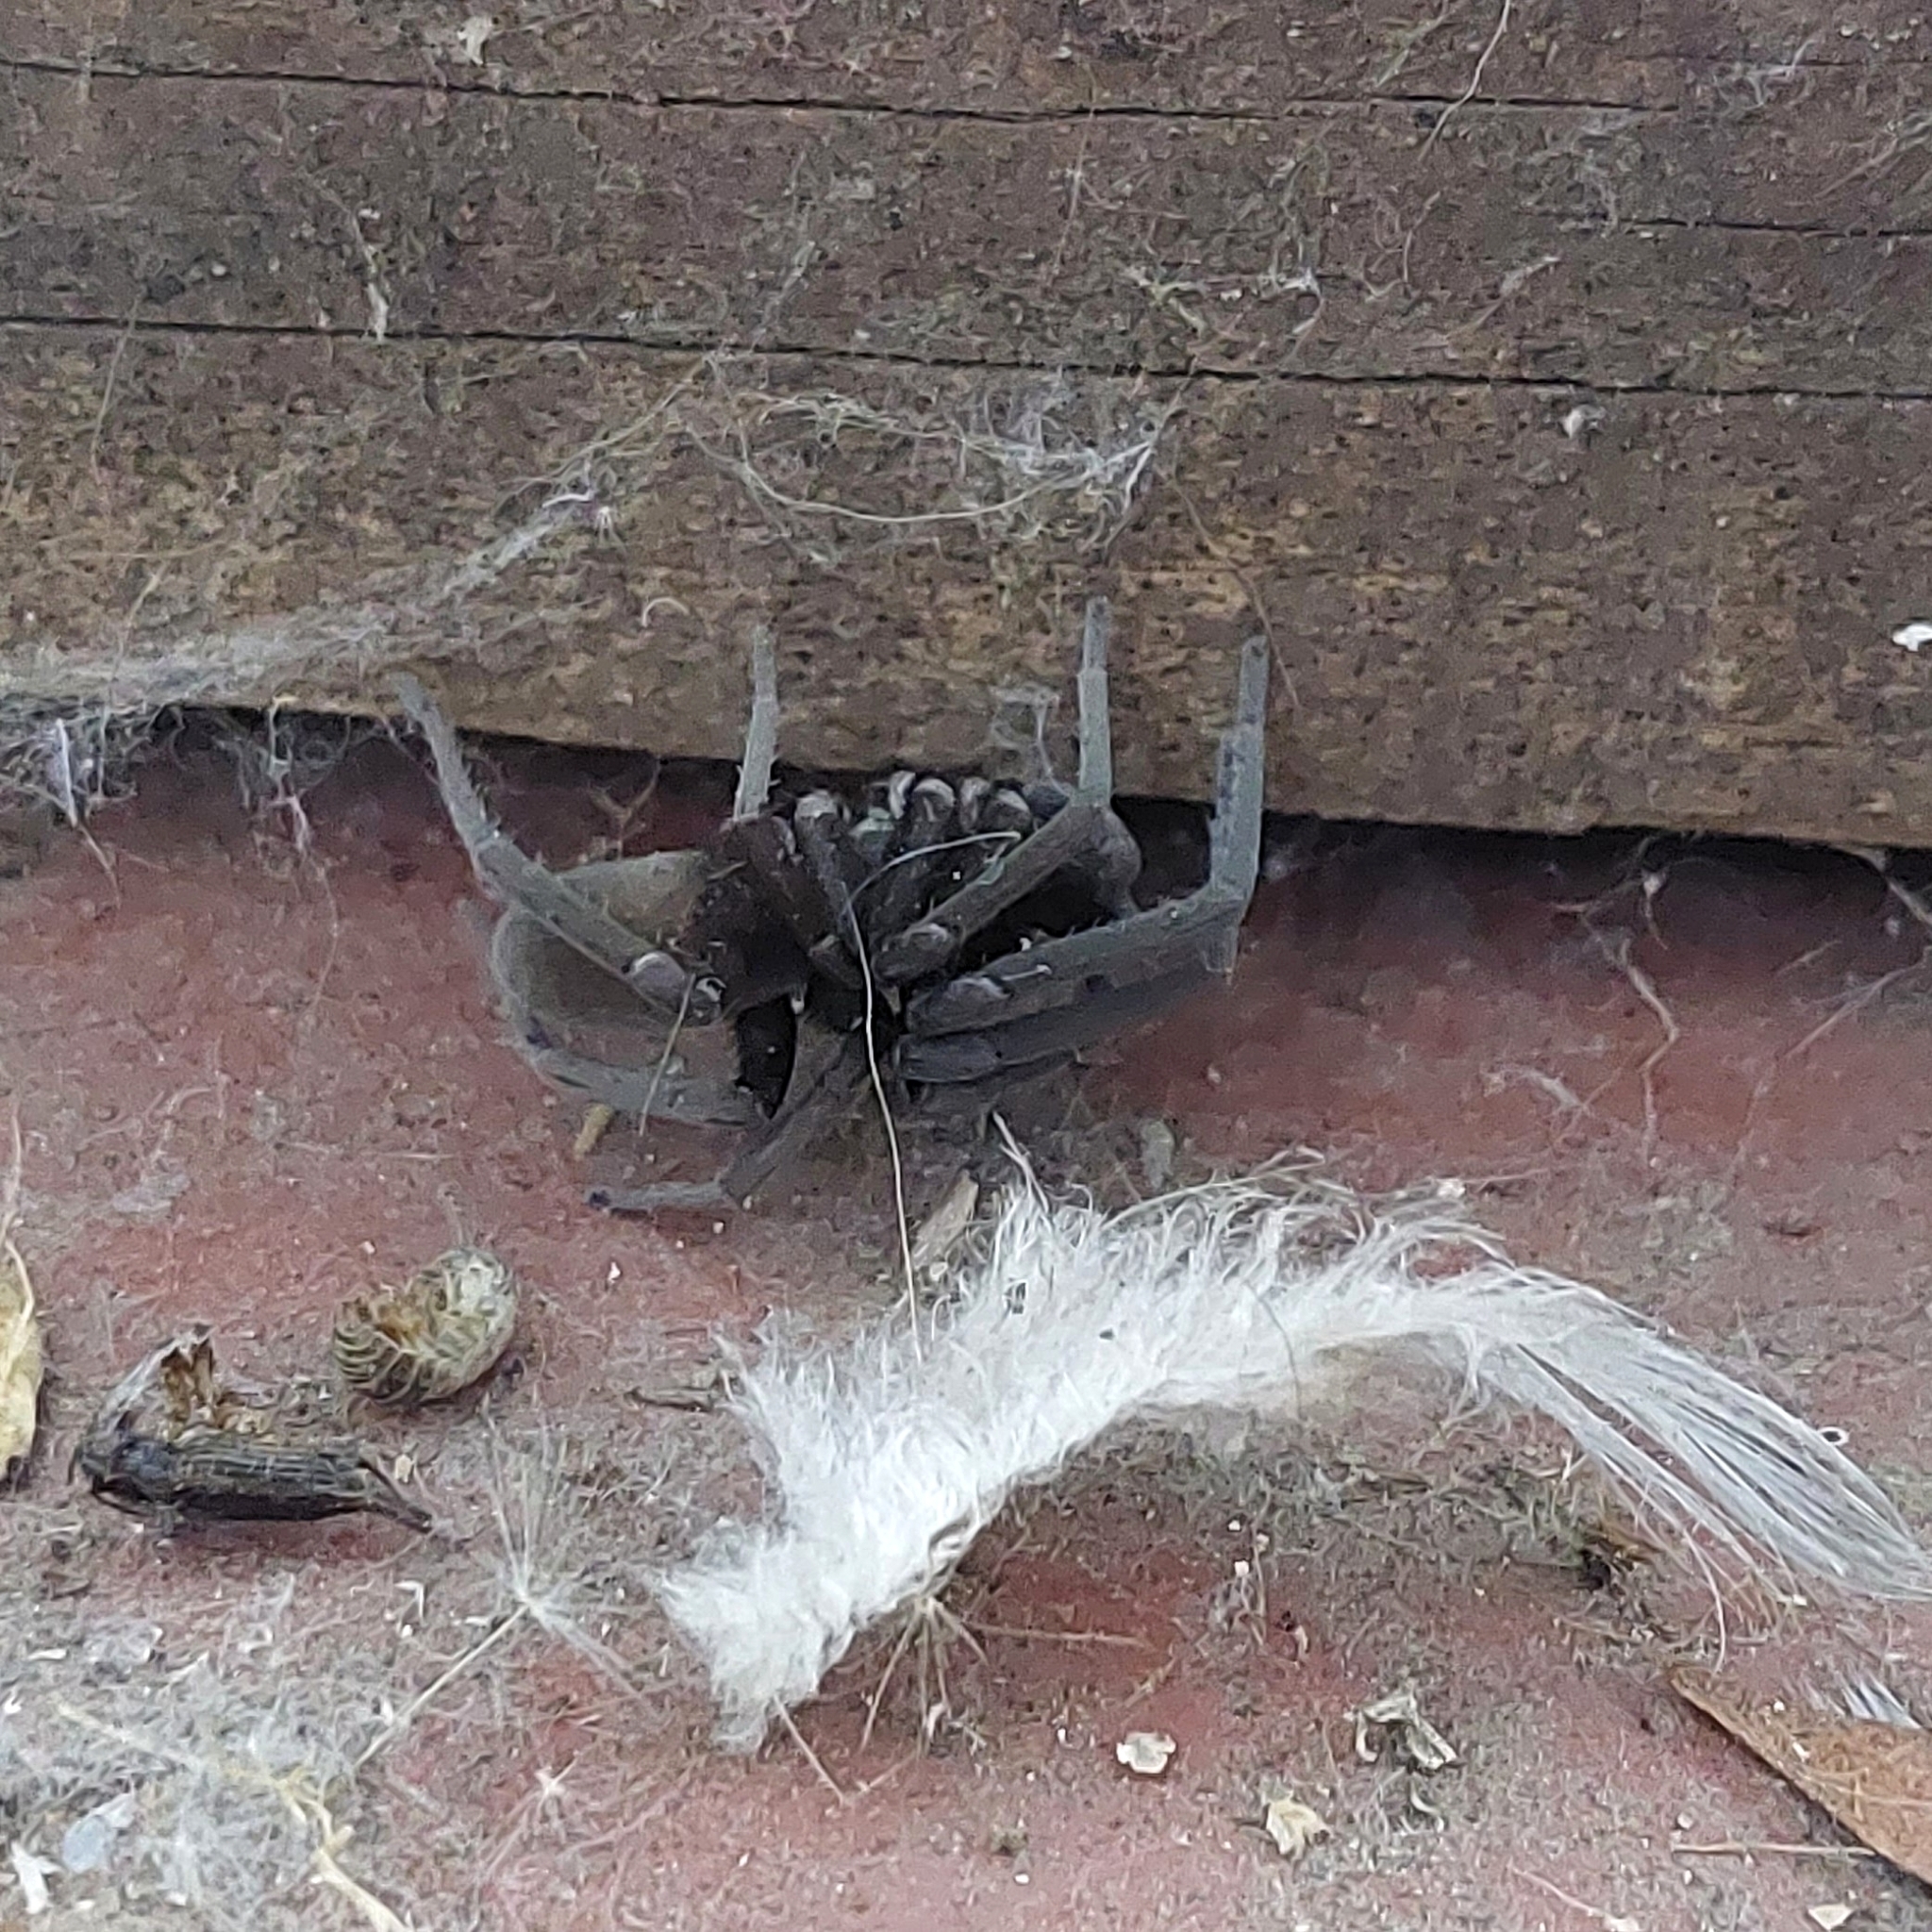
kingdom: Animalia
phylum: Arthropoda
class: Arachnida
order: Araneae
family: Filistatidae
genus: Kukulcania
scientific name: Kukulcania hibernalis
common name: Crevice weaver
